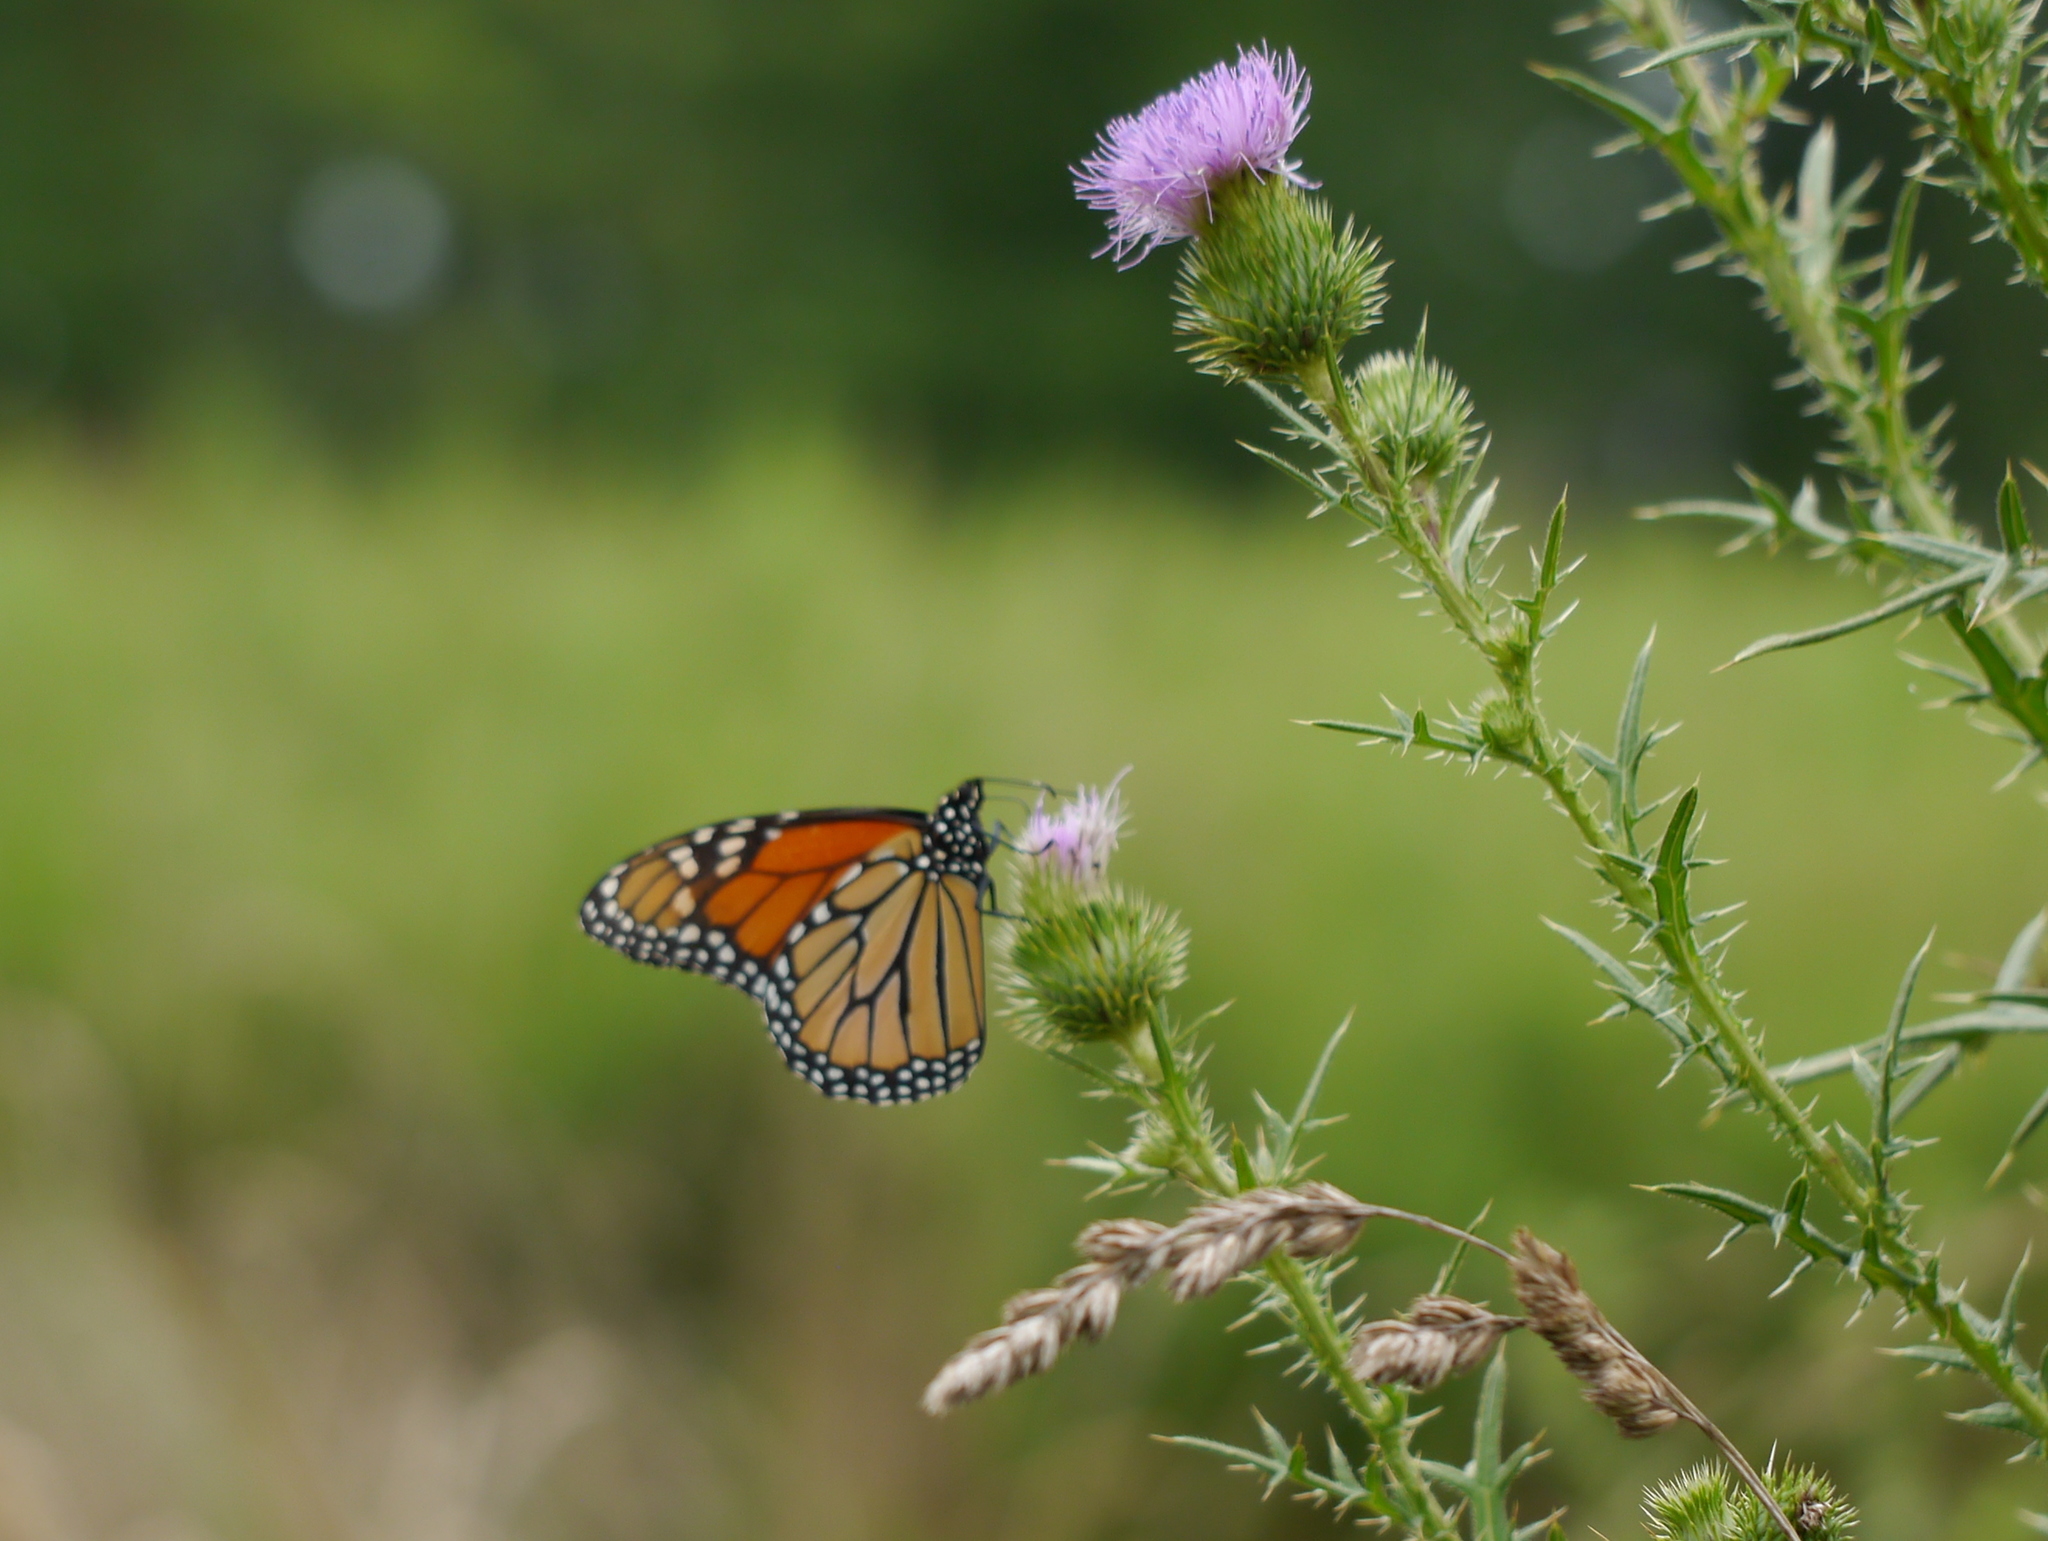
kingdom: Animalia
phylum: Arthropoda
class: Insecta
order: Lepidoptera
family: Nymphalidae
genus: Danaus
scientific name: Danaus plexippus
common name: Monarch
